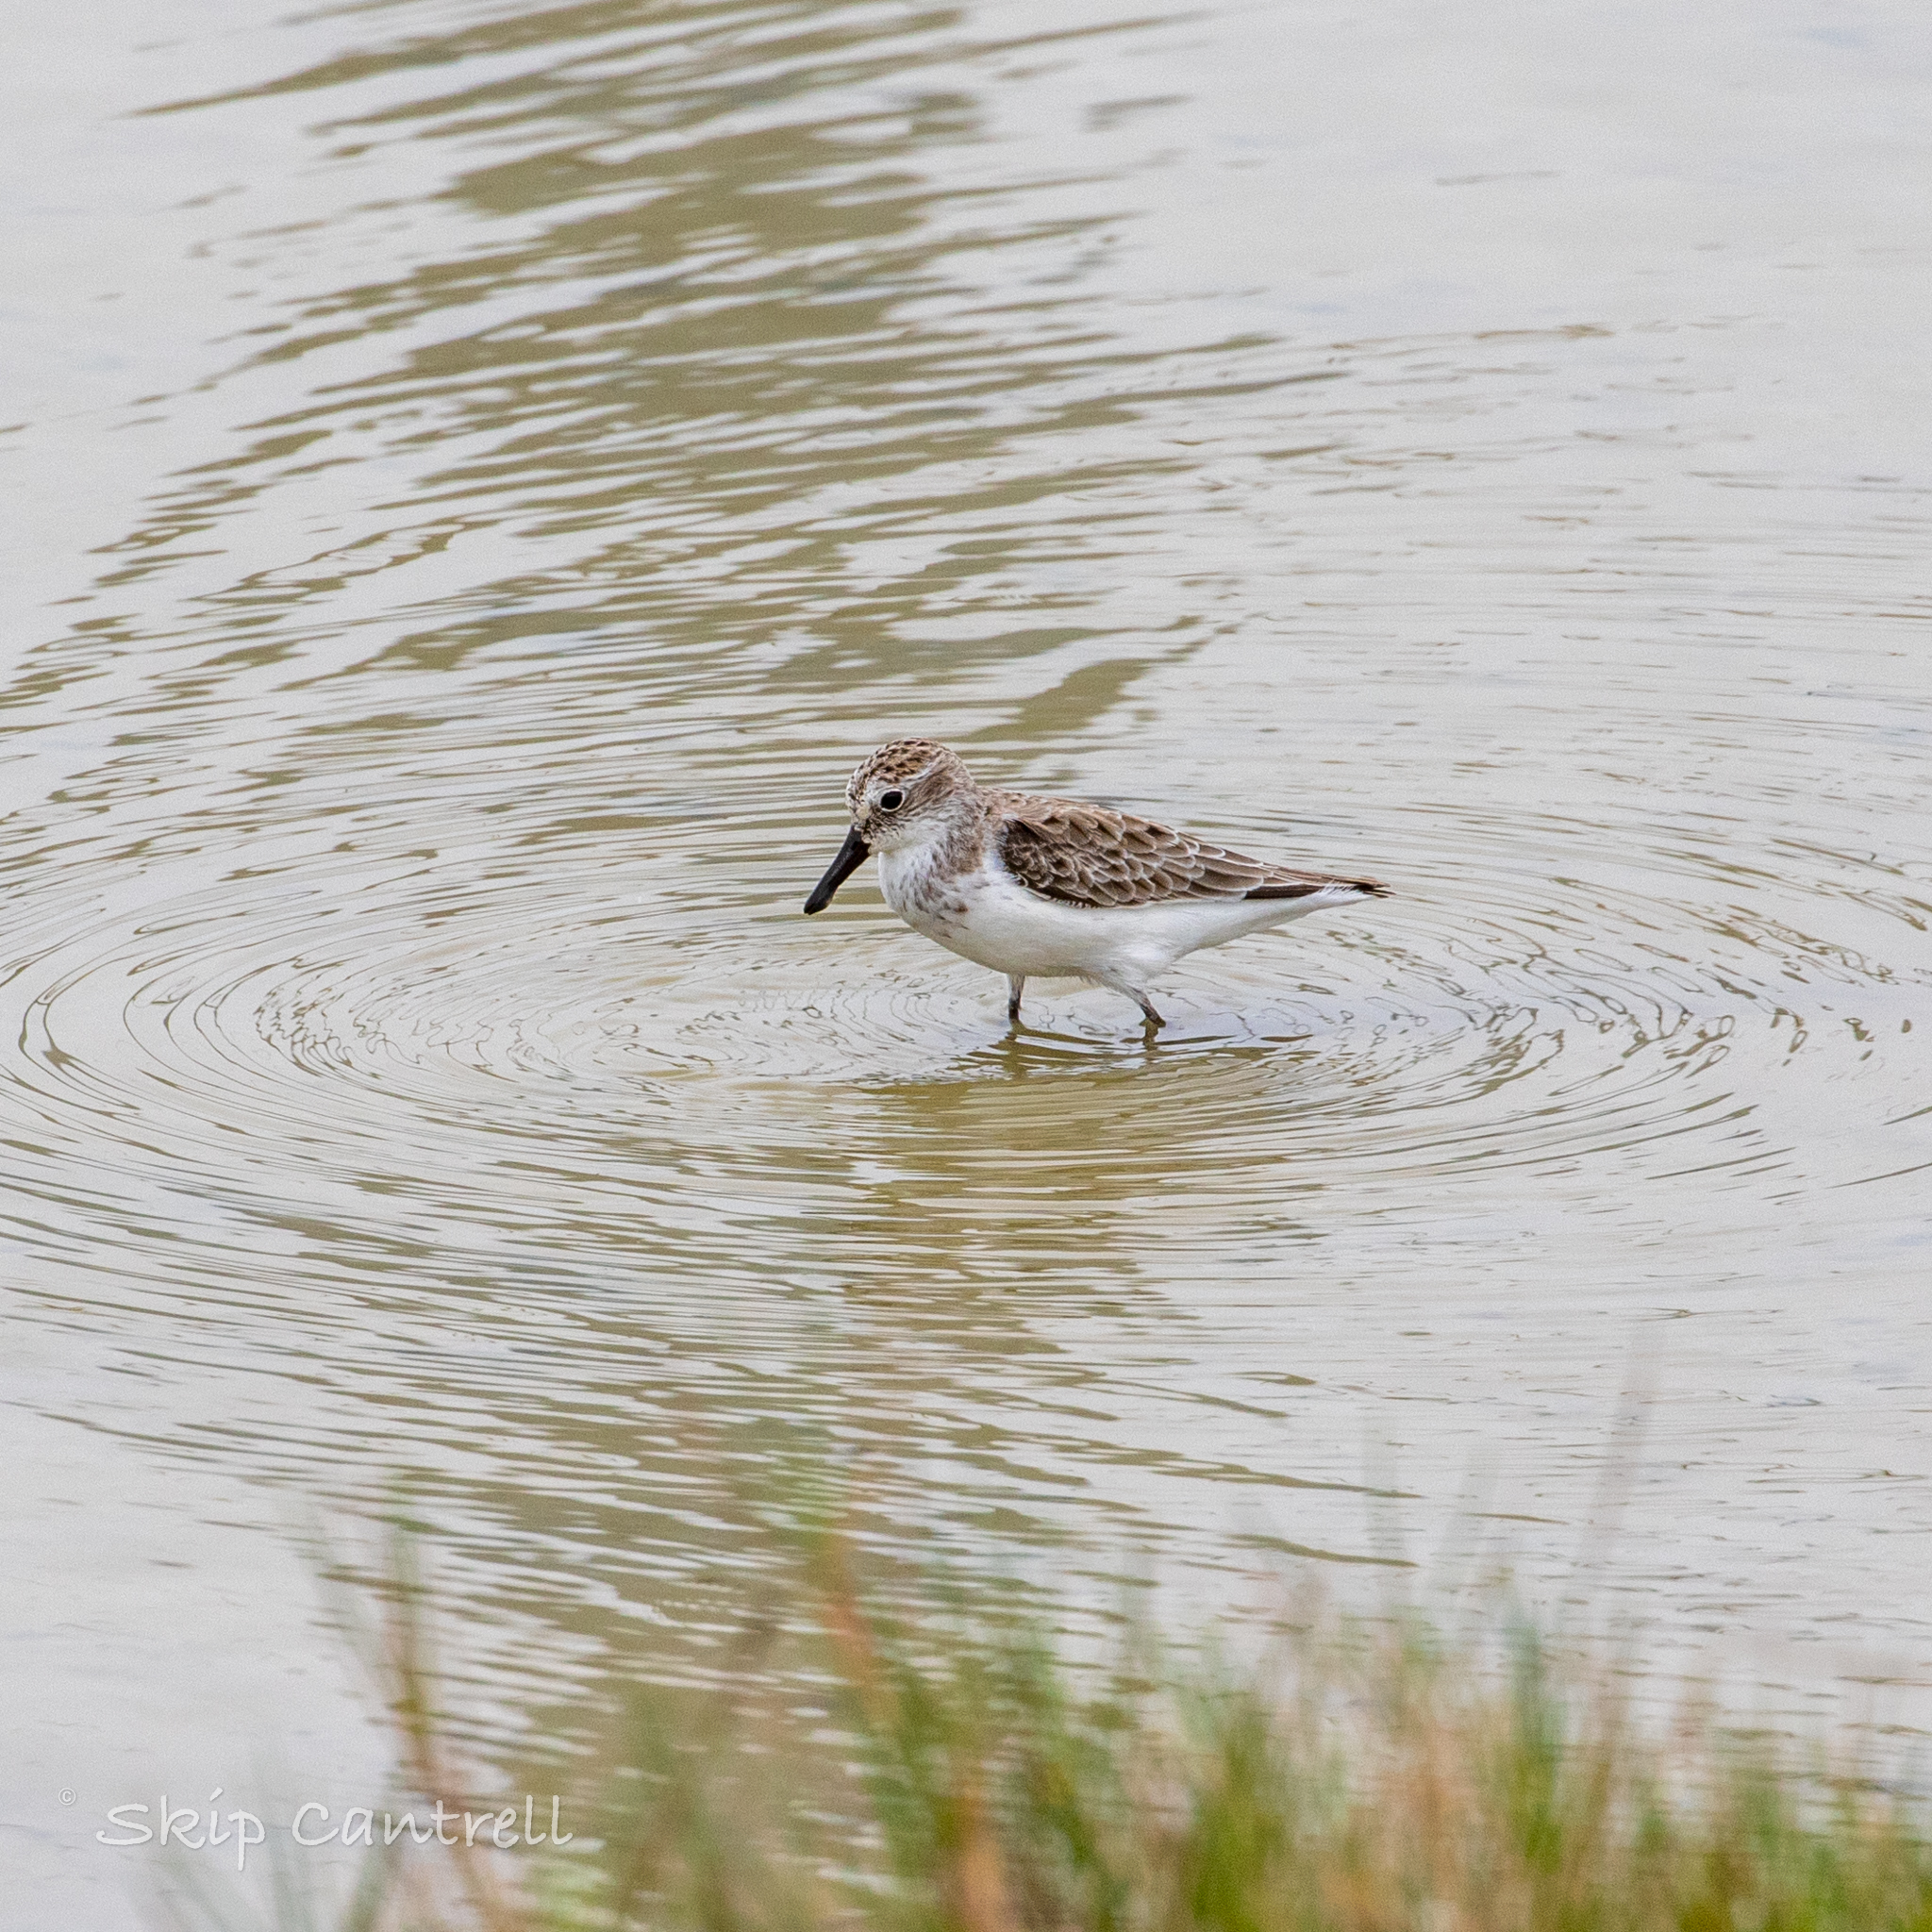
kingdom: Animalia
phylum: Chordata
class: Aves
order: Charadriiformes
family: Scolopacidae
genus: Calidris
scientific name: Calidris pusilla
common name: Semipalmated sandpiper
